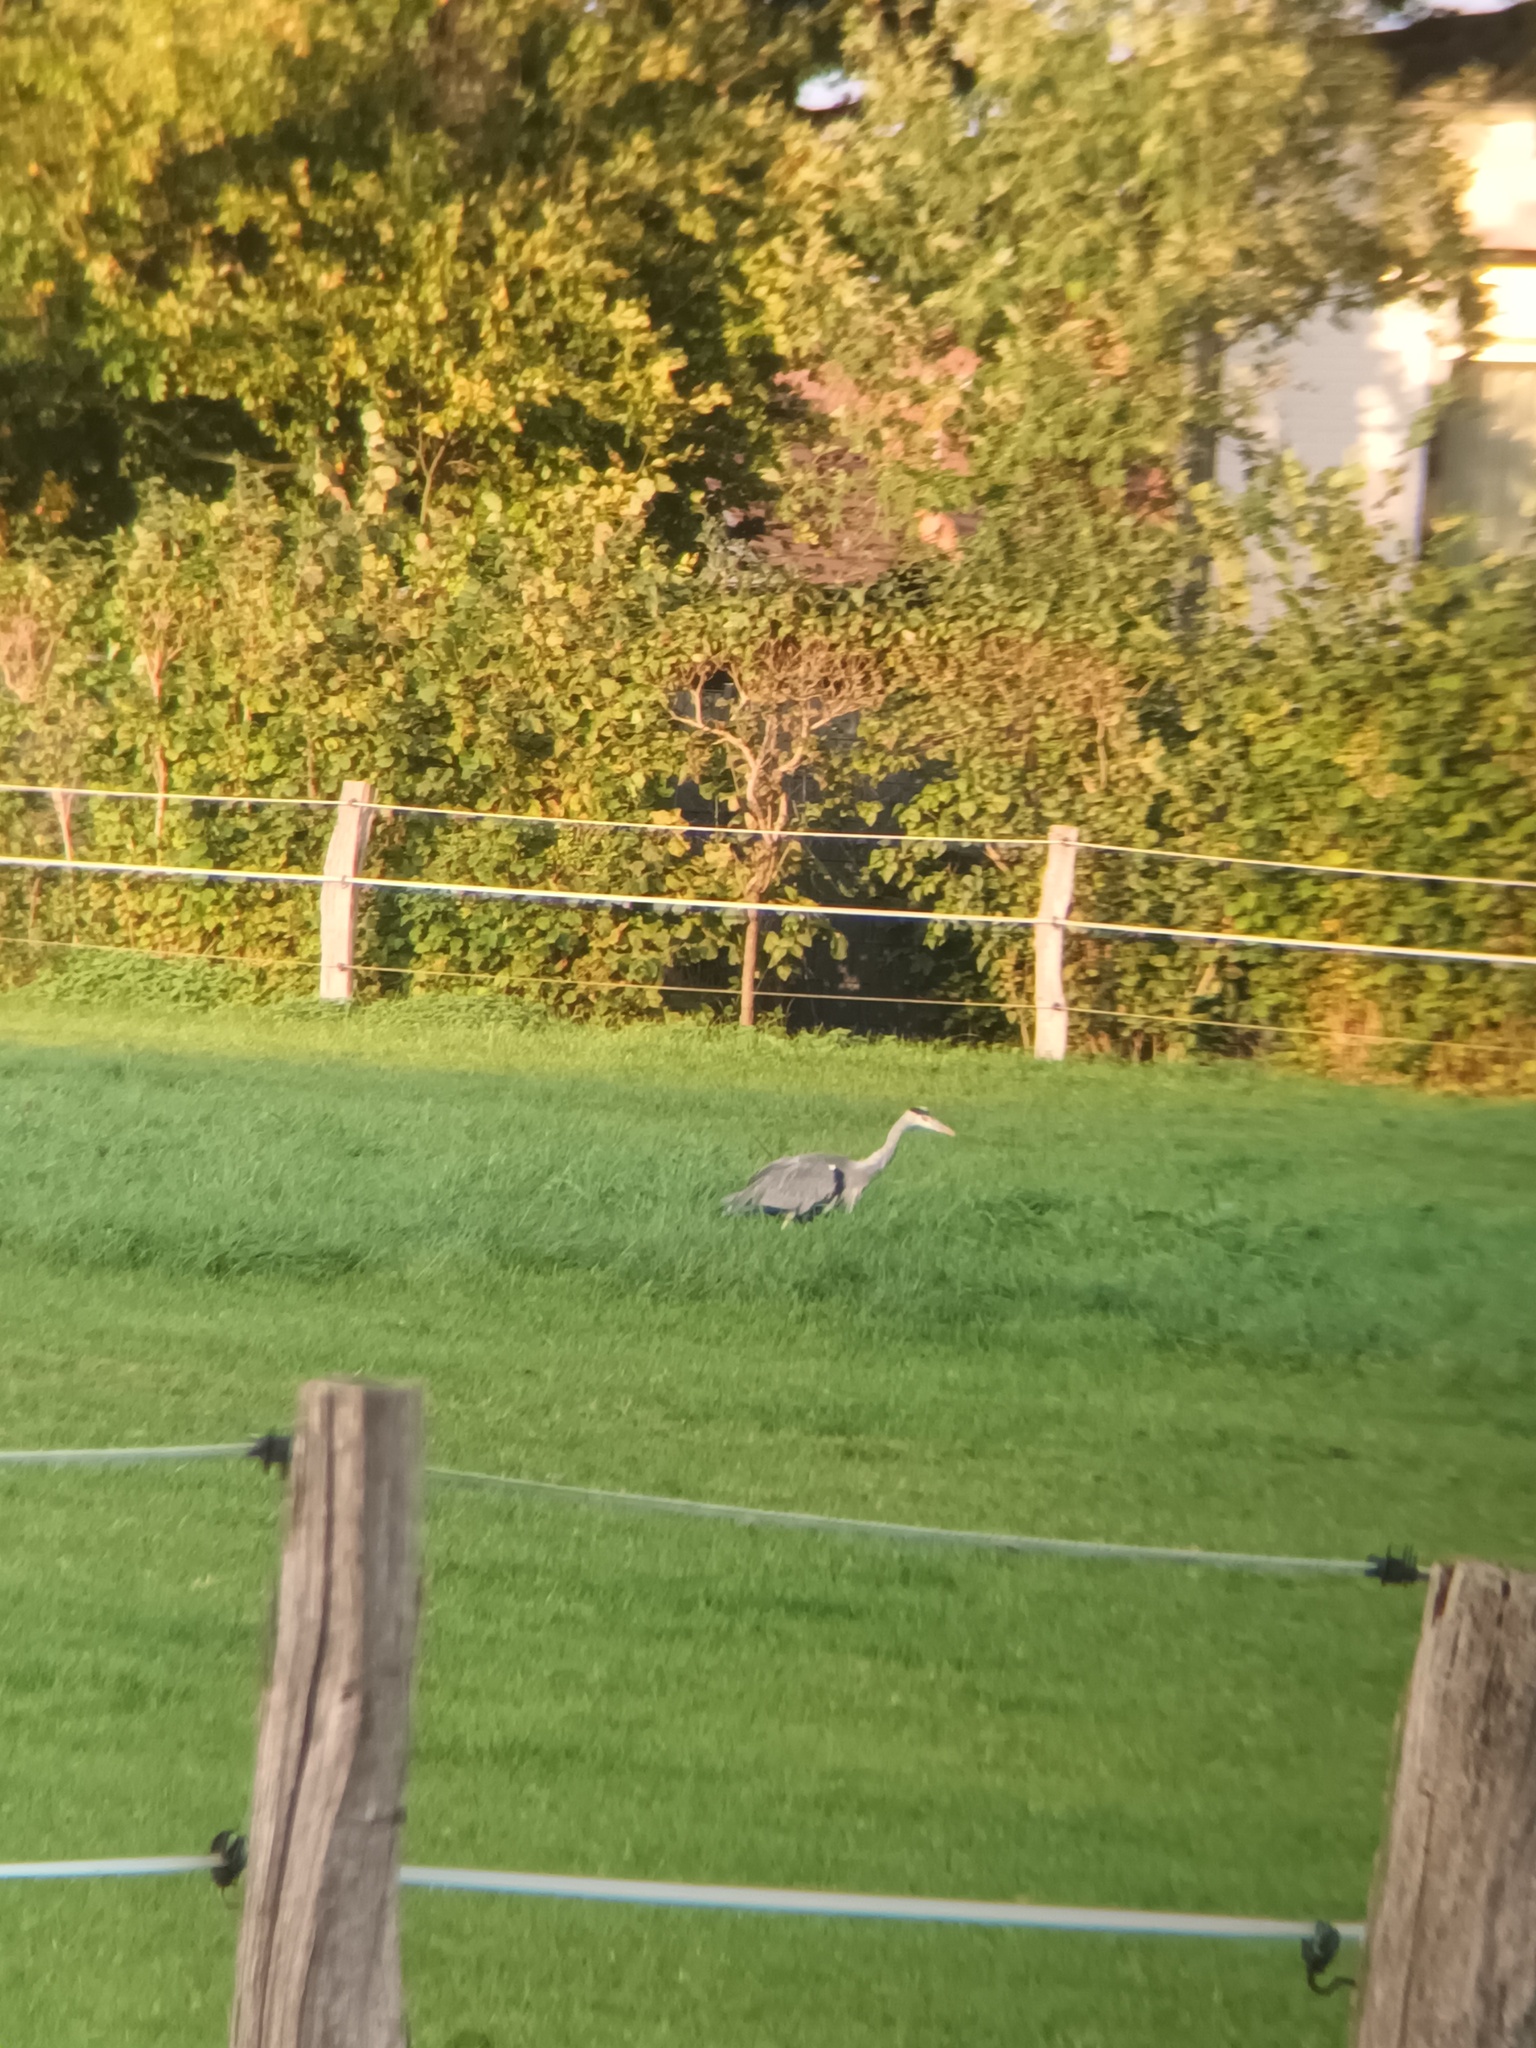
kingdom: Animalia
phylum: Chordata
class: Aves
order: Pelecaniformes
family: Ardeidae
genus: Ardea
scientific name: Ardea cinerea
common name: Grey heron
